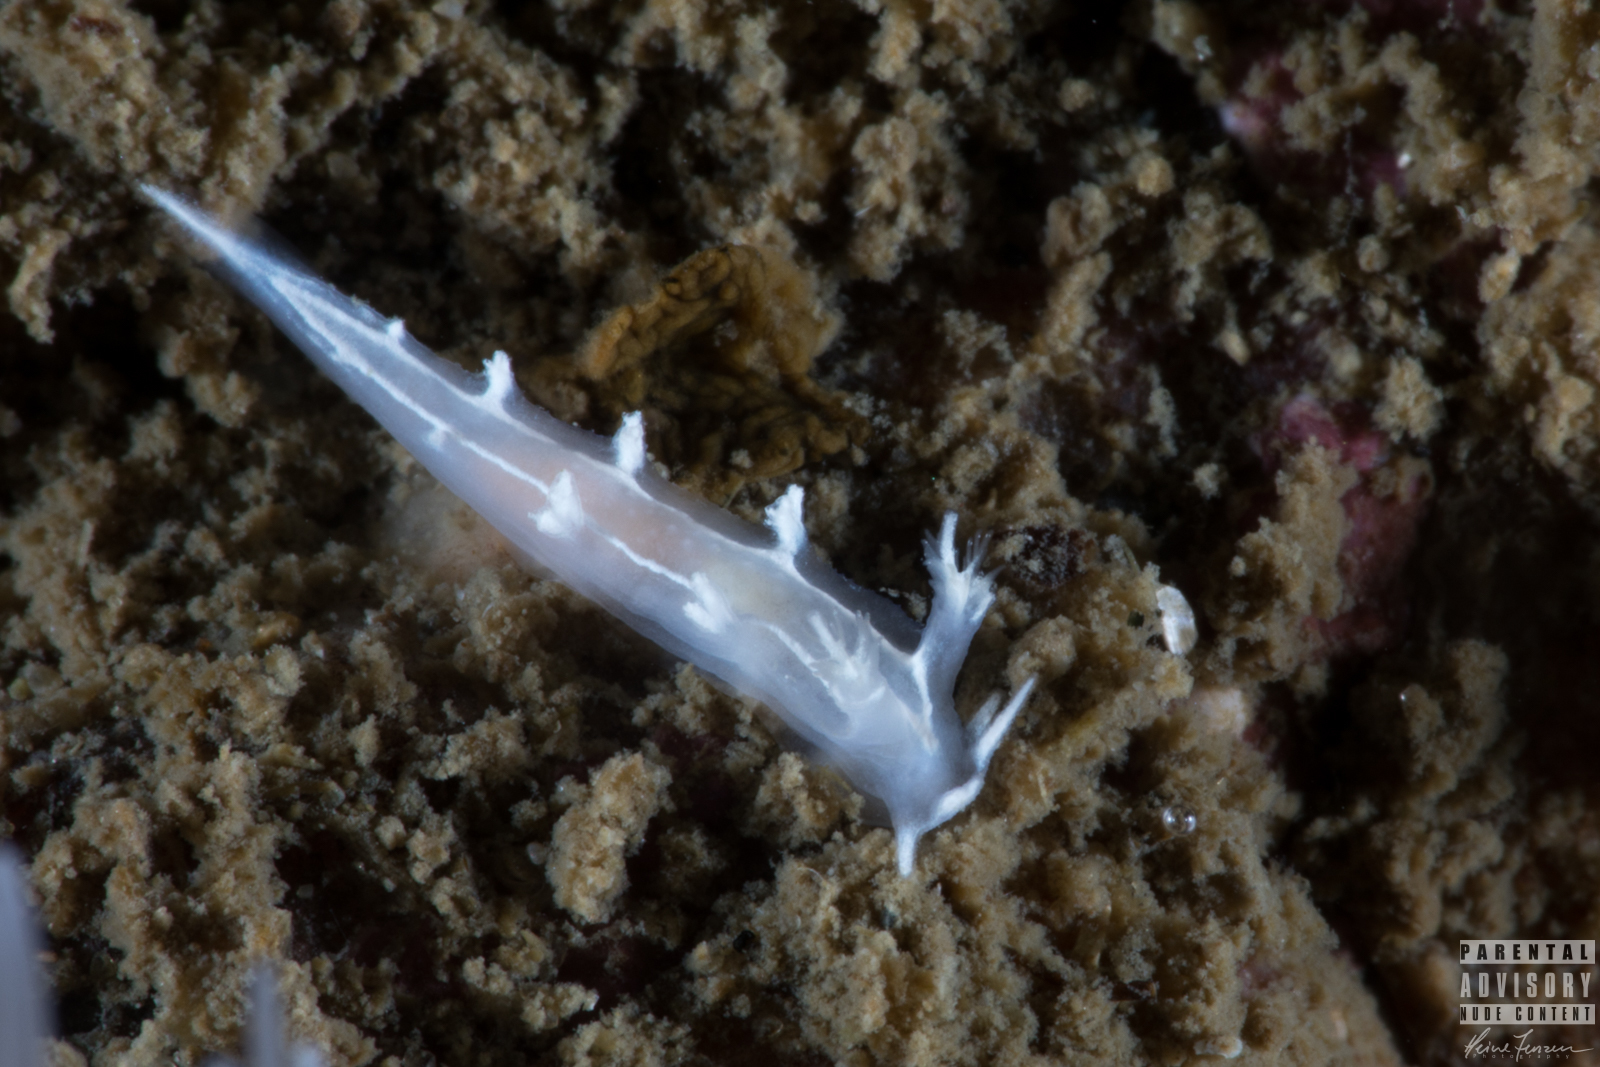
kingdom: Animalia
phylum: Mollusca
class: Gastropoda
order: Nudibranchia
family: Tritoniidae
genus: Duvaucelia
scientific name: Duvaucelia lineata
